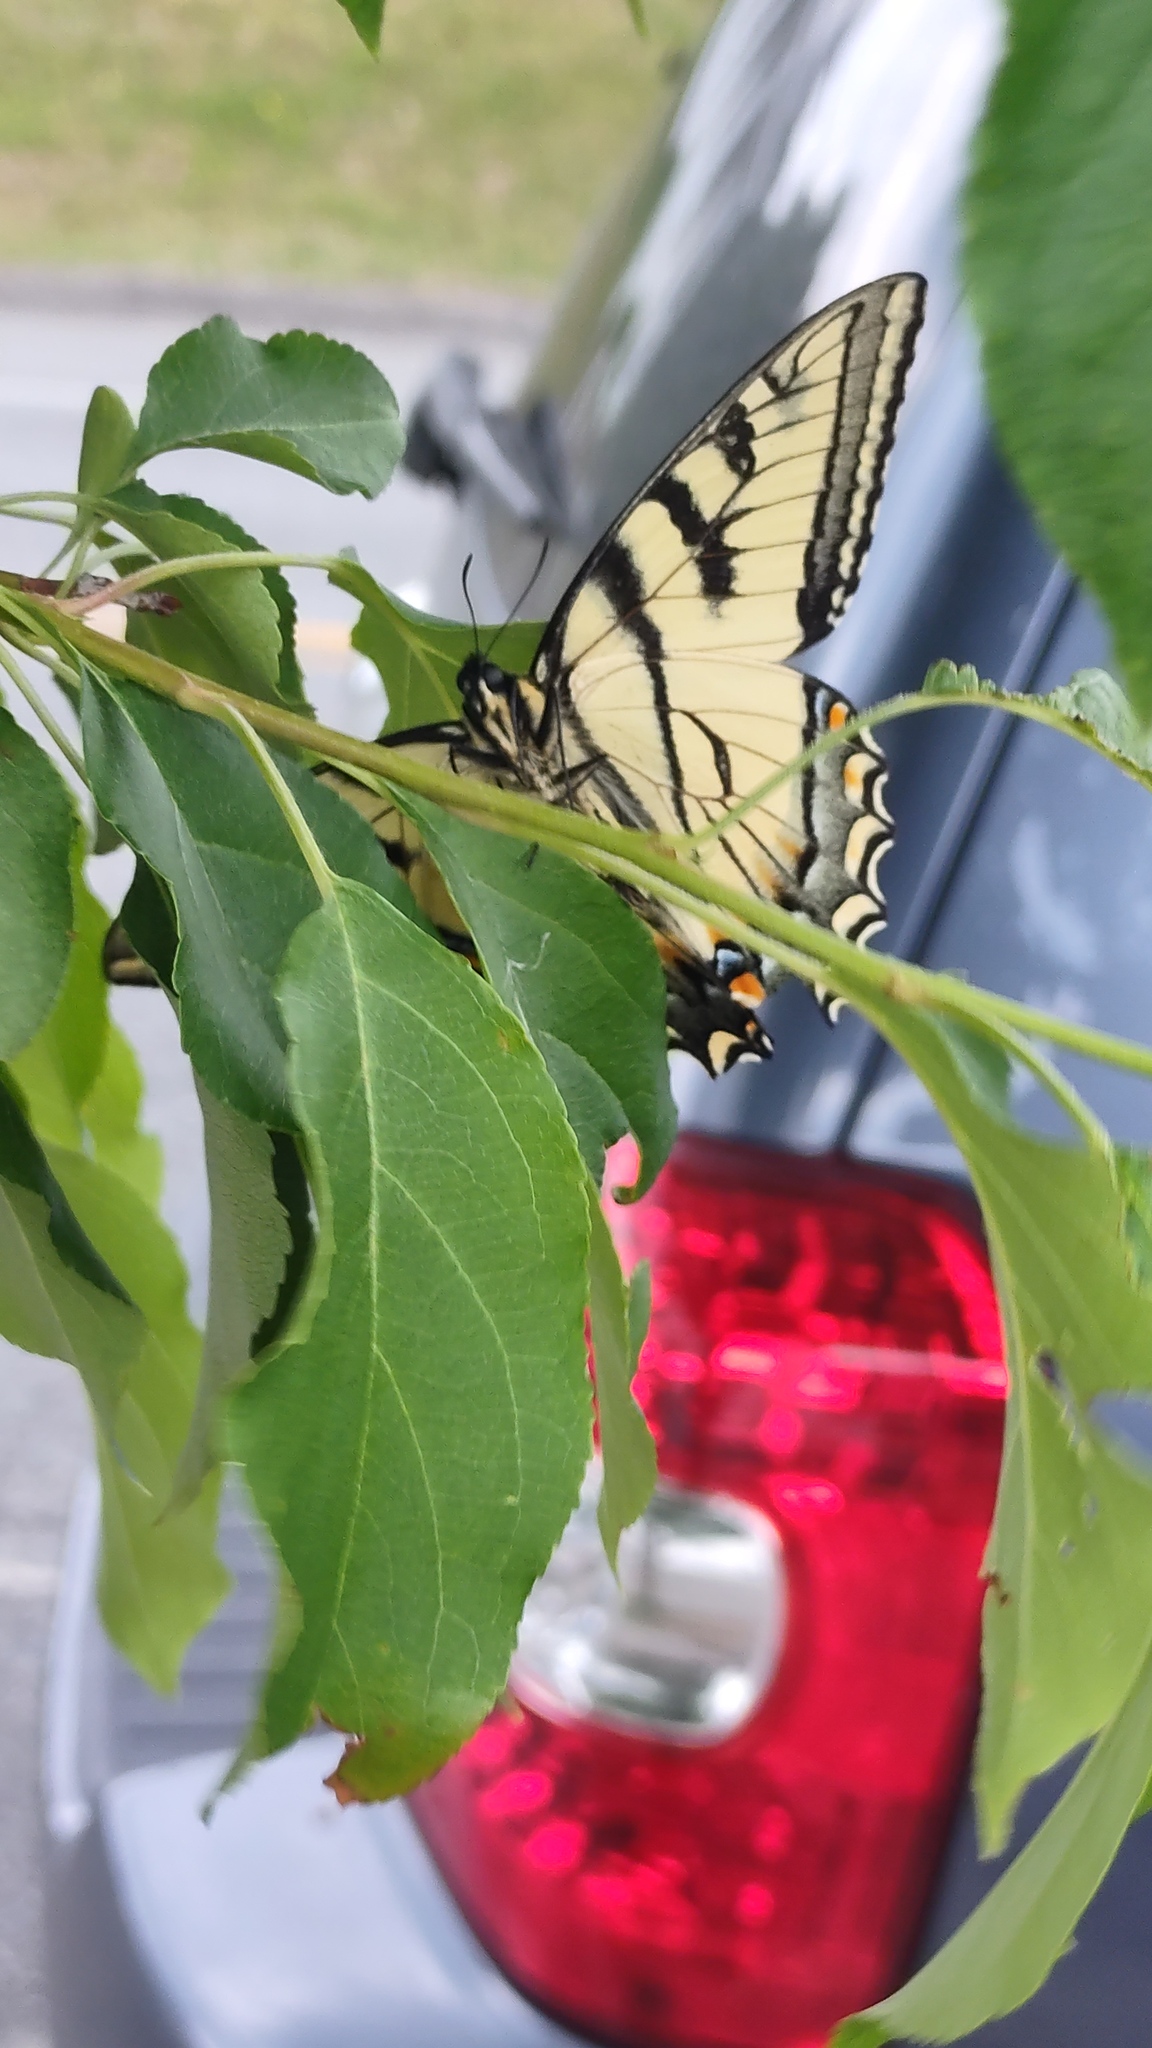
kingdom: Animalia
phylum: Arthropoda
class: Insecta
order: Lepidoptera
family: Papilionidae
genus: Papilio
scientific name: Papilio canadensis
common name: Canadian tiger swallowtail
